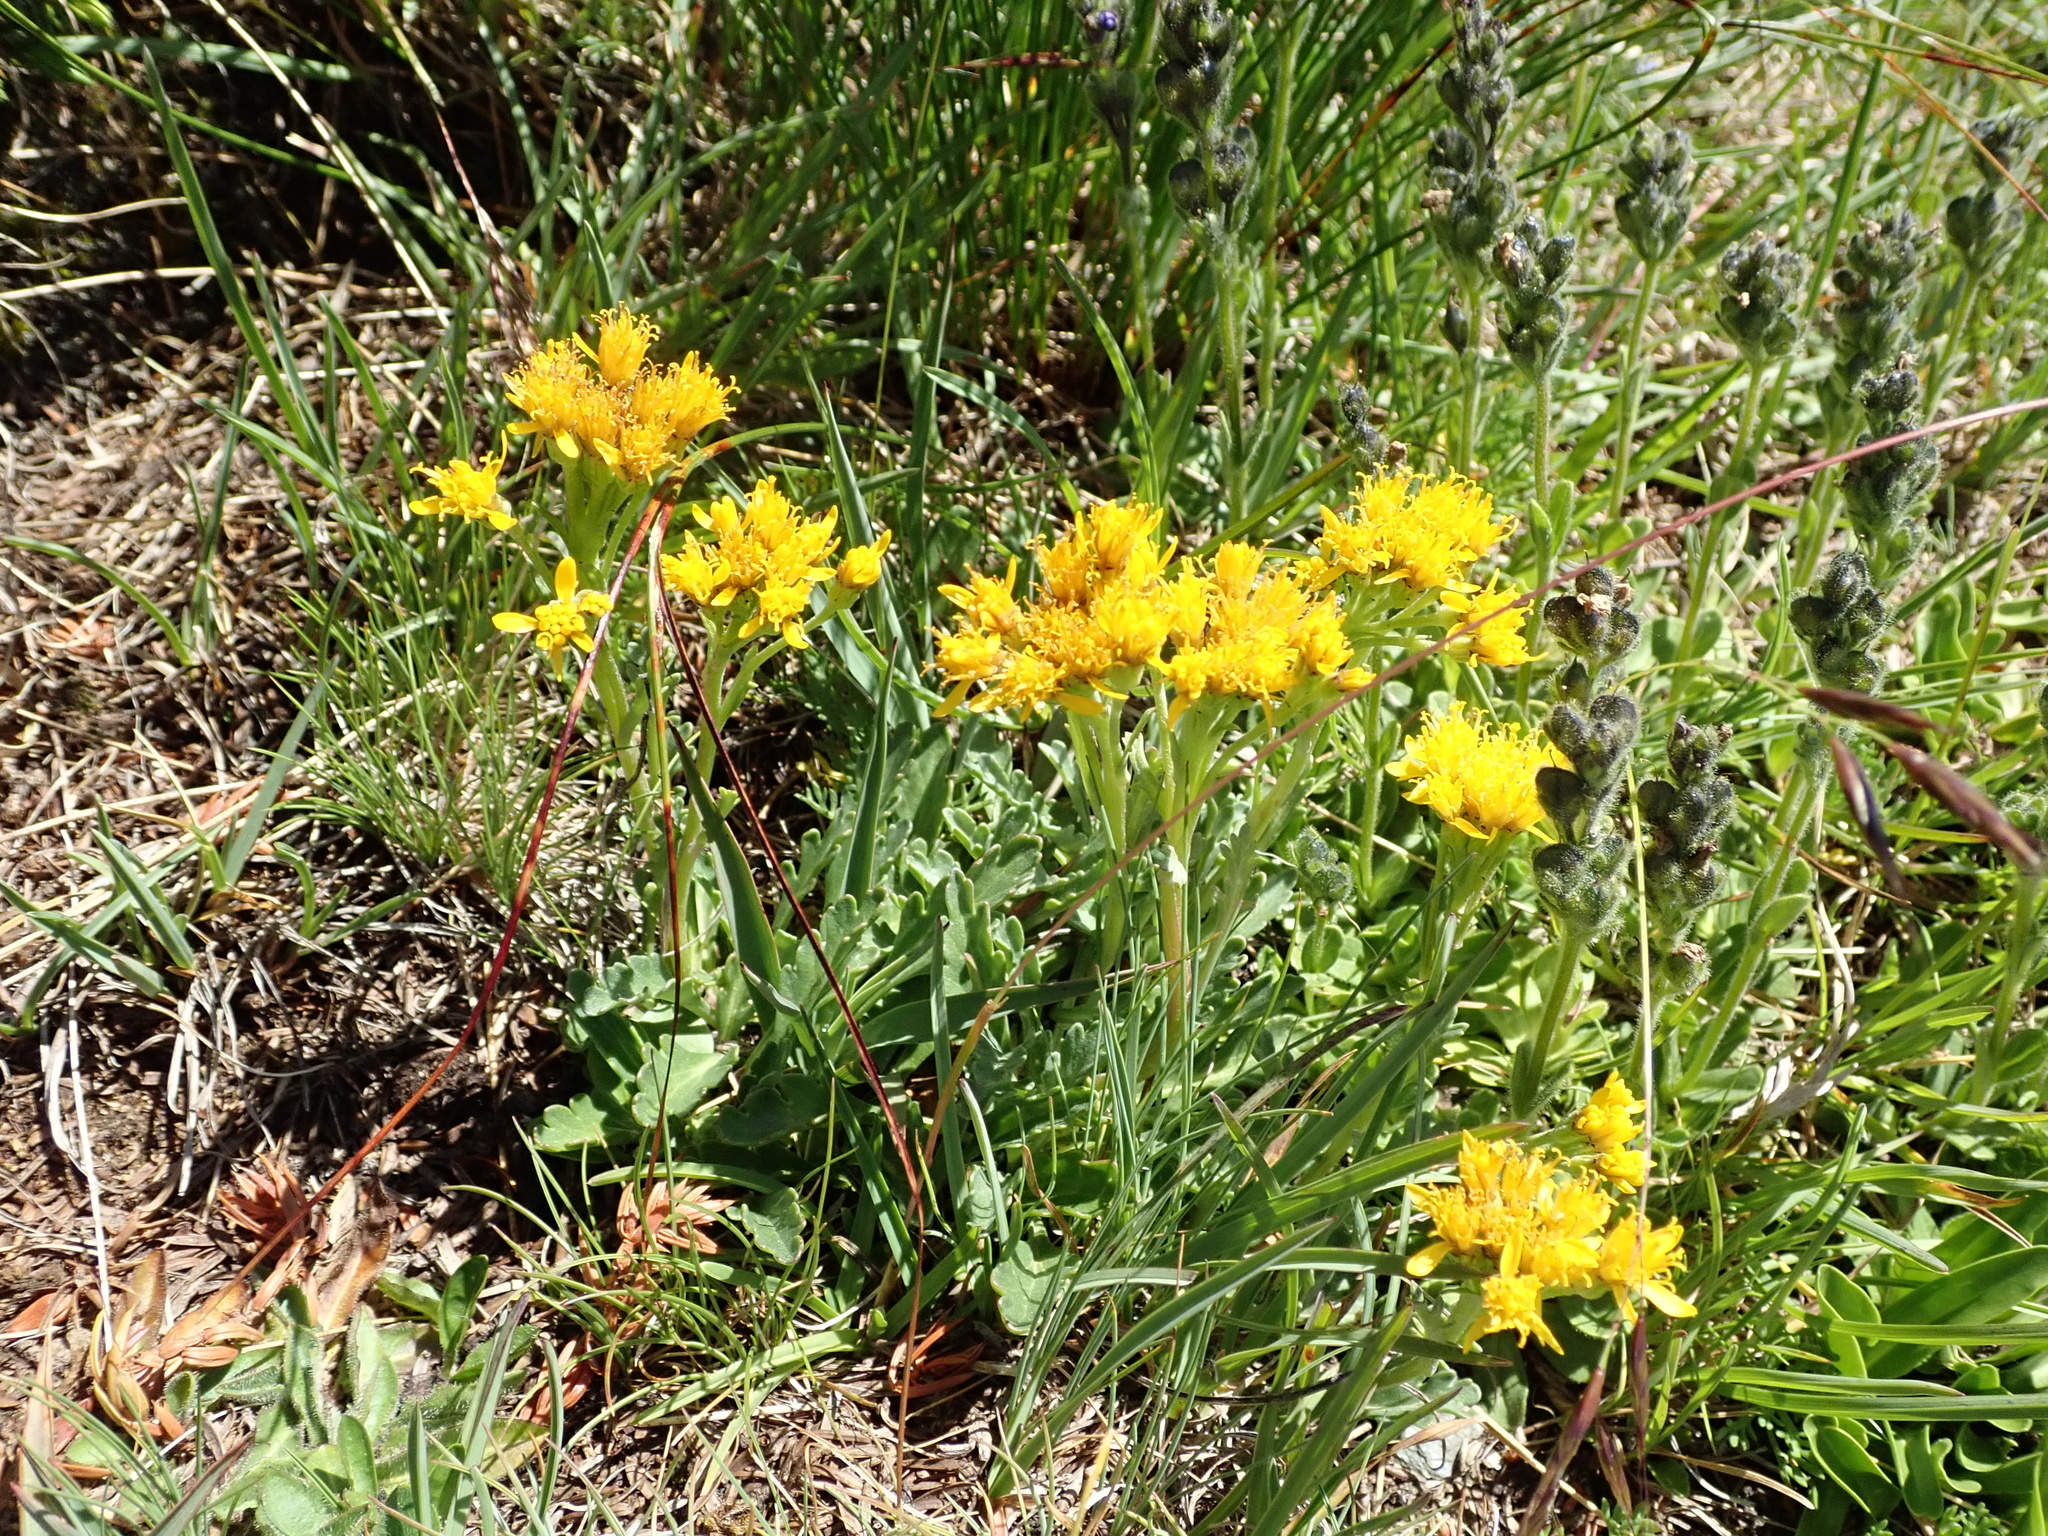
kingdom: Plantae
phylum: Tracheophyta
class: Magnoliopsida
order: Asterales
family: Asteraceae
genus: Jacobaea
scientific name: Jacobaea carniolica
